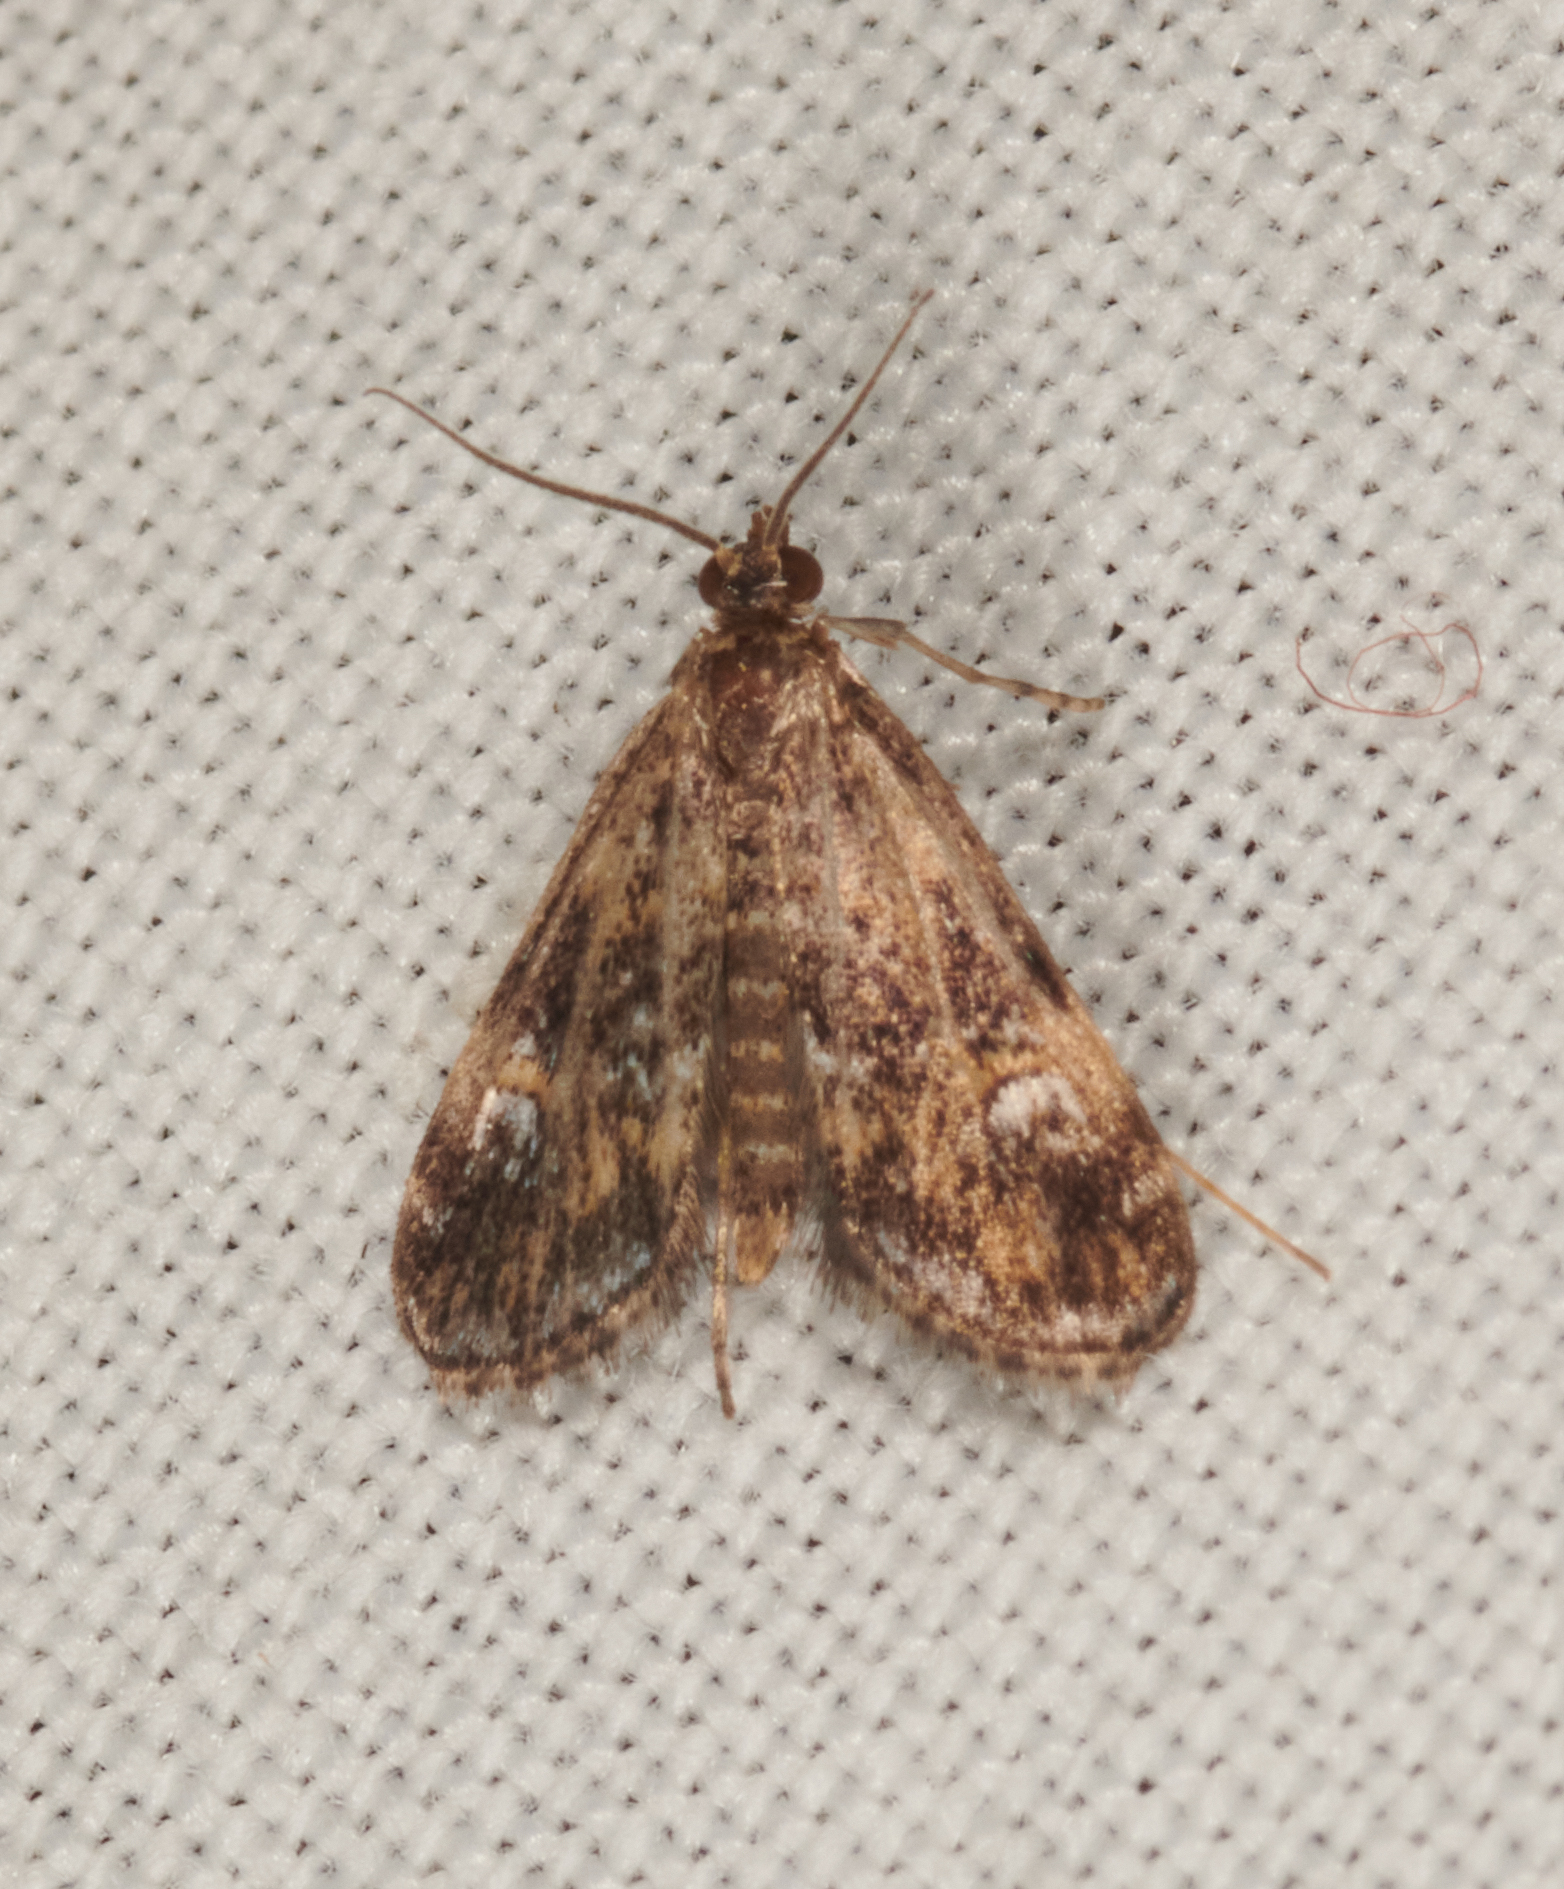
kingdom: Animalia
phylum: Arthropoda
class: Insecta
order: Lepidoptera
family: Crambidae
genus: Elophila
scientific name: Elophila obliteralis
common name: Waterlily leafcutter moth
